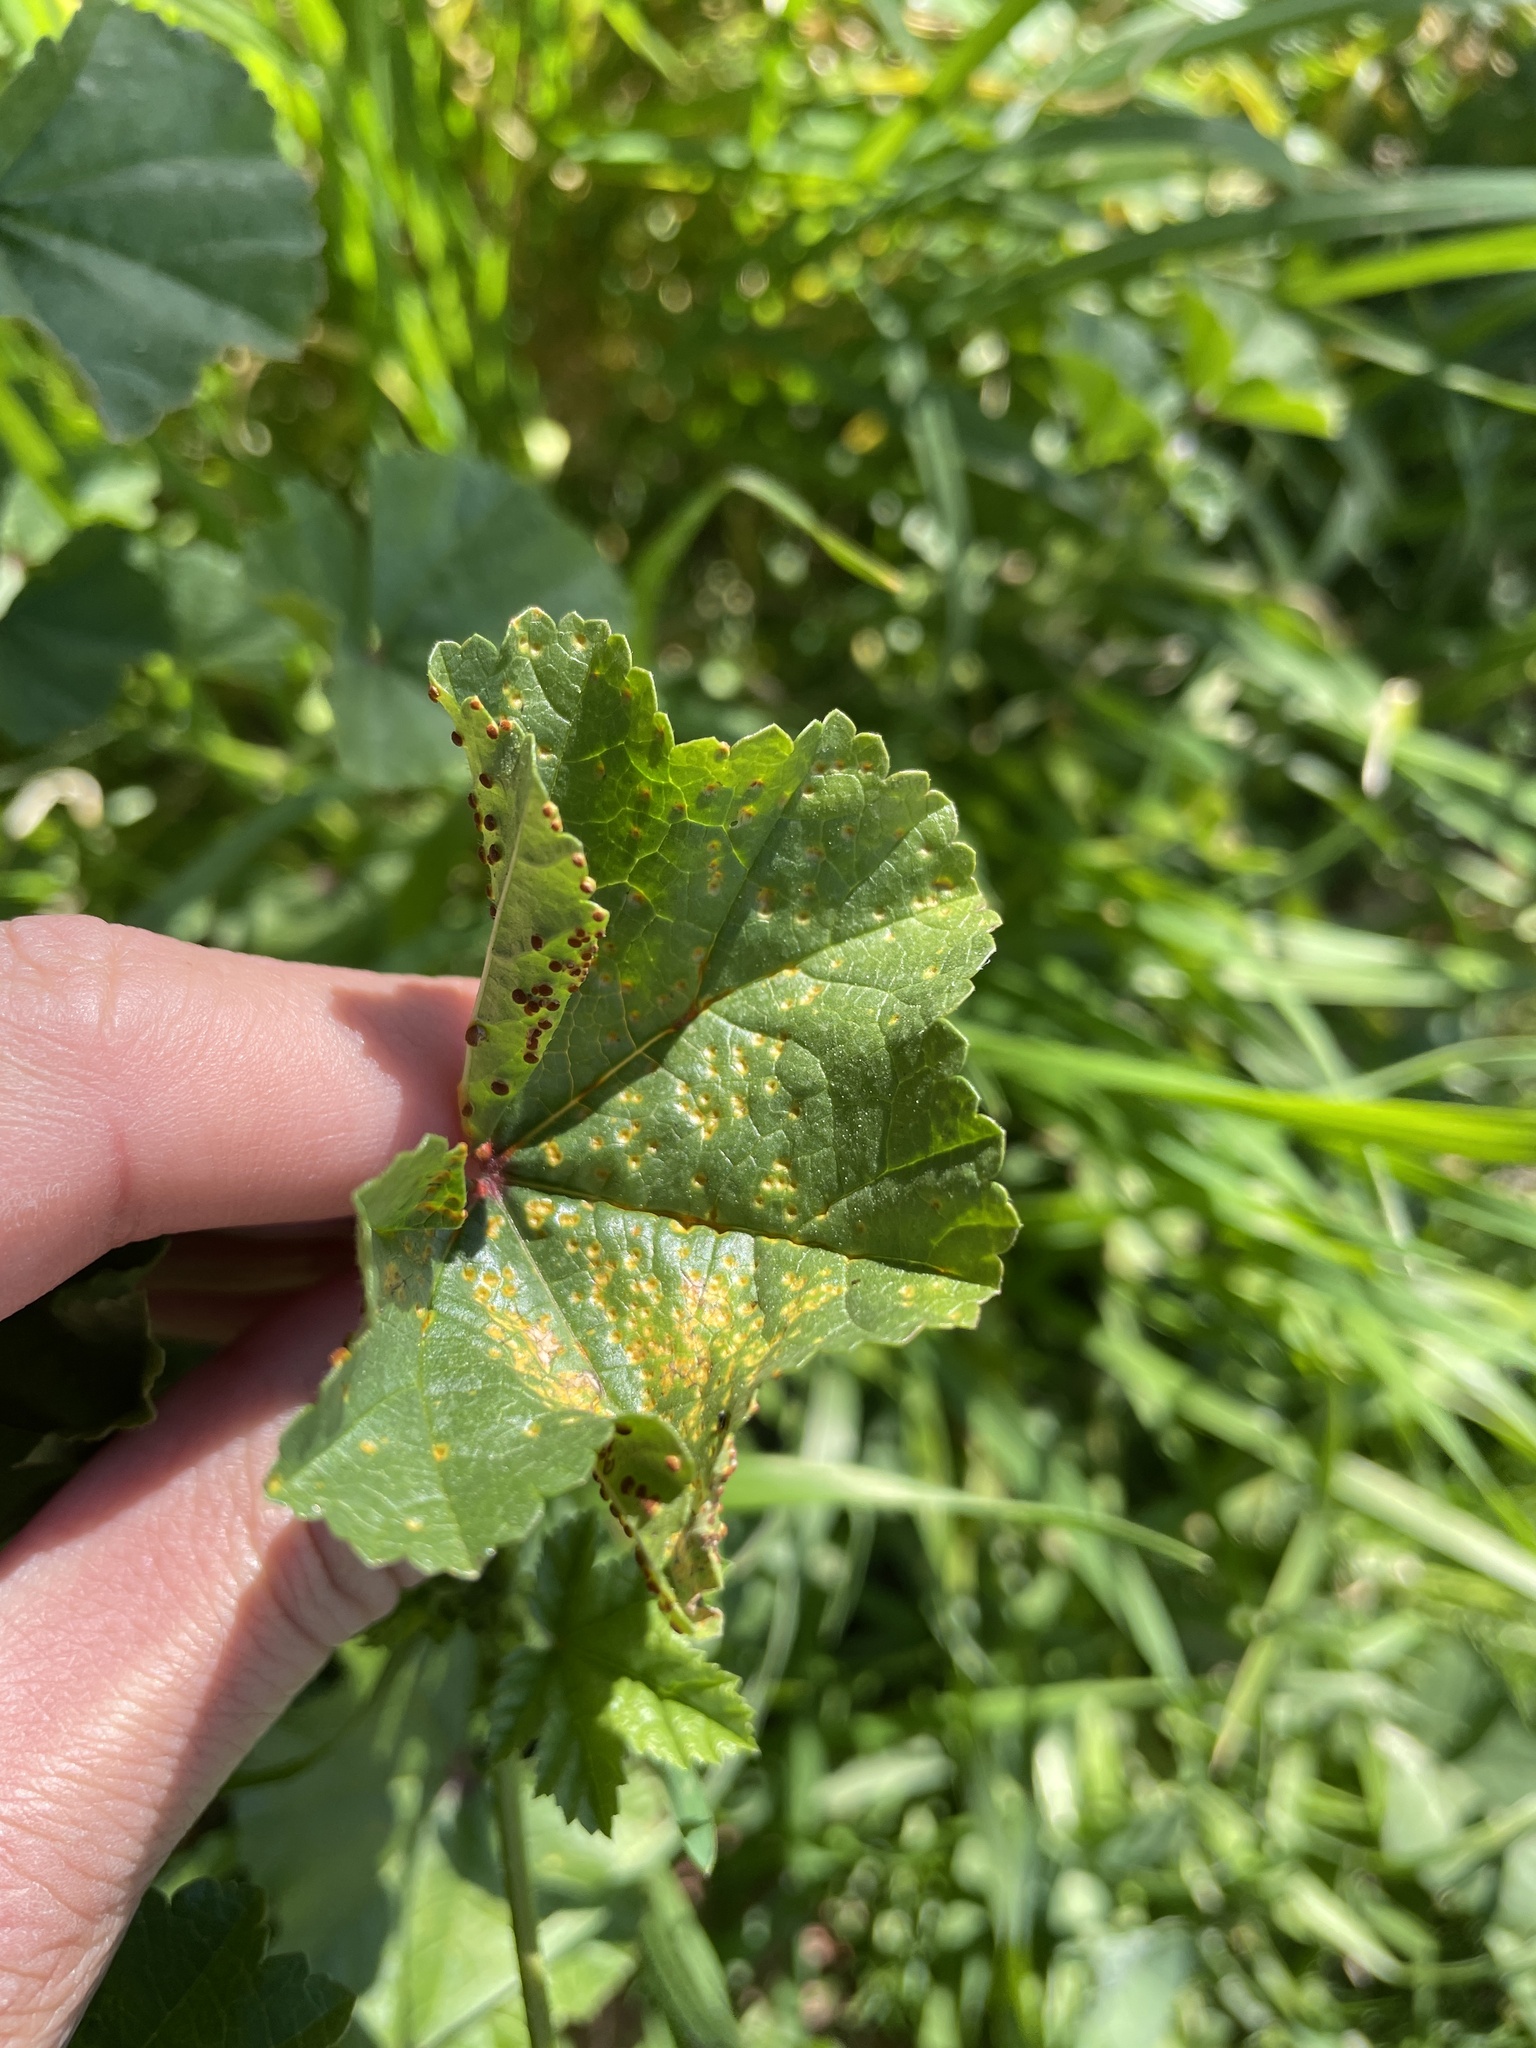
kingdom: Fungi
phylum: Basidiomycota
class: Pucciniomycetes
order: Pucciniales
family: Pucciniaceae
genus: Puccinia
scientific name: Puccinia malvacearum
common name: Hollyhock rust
